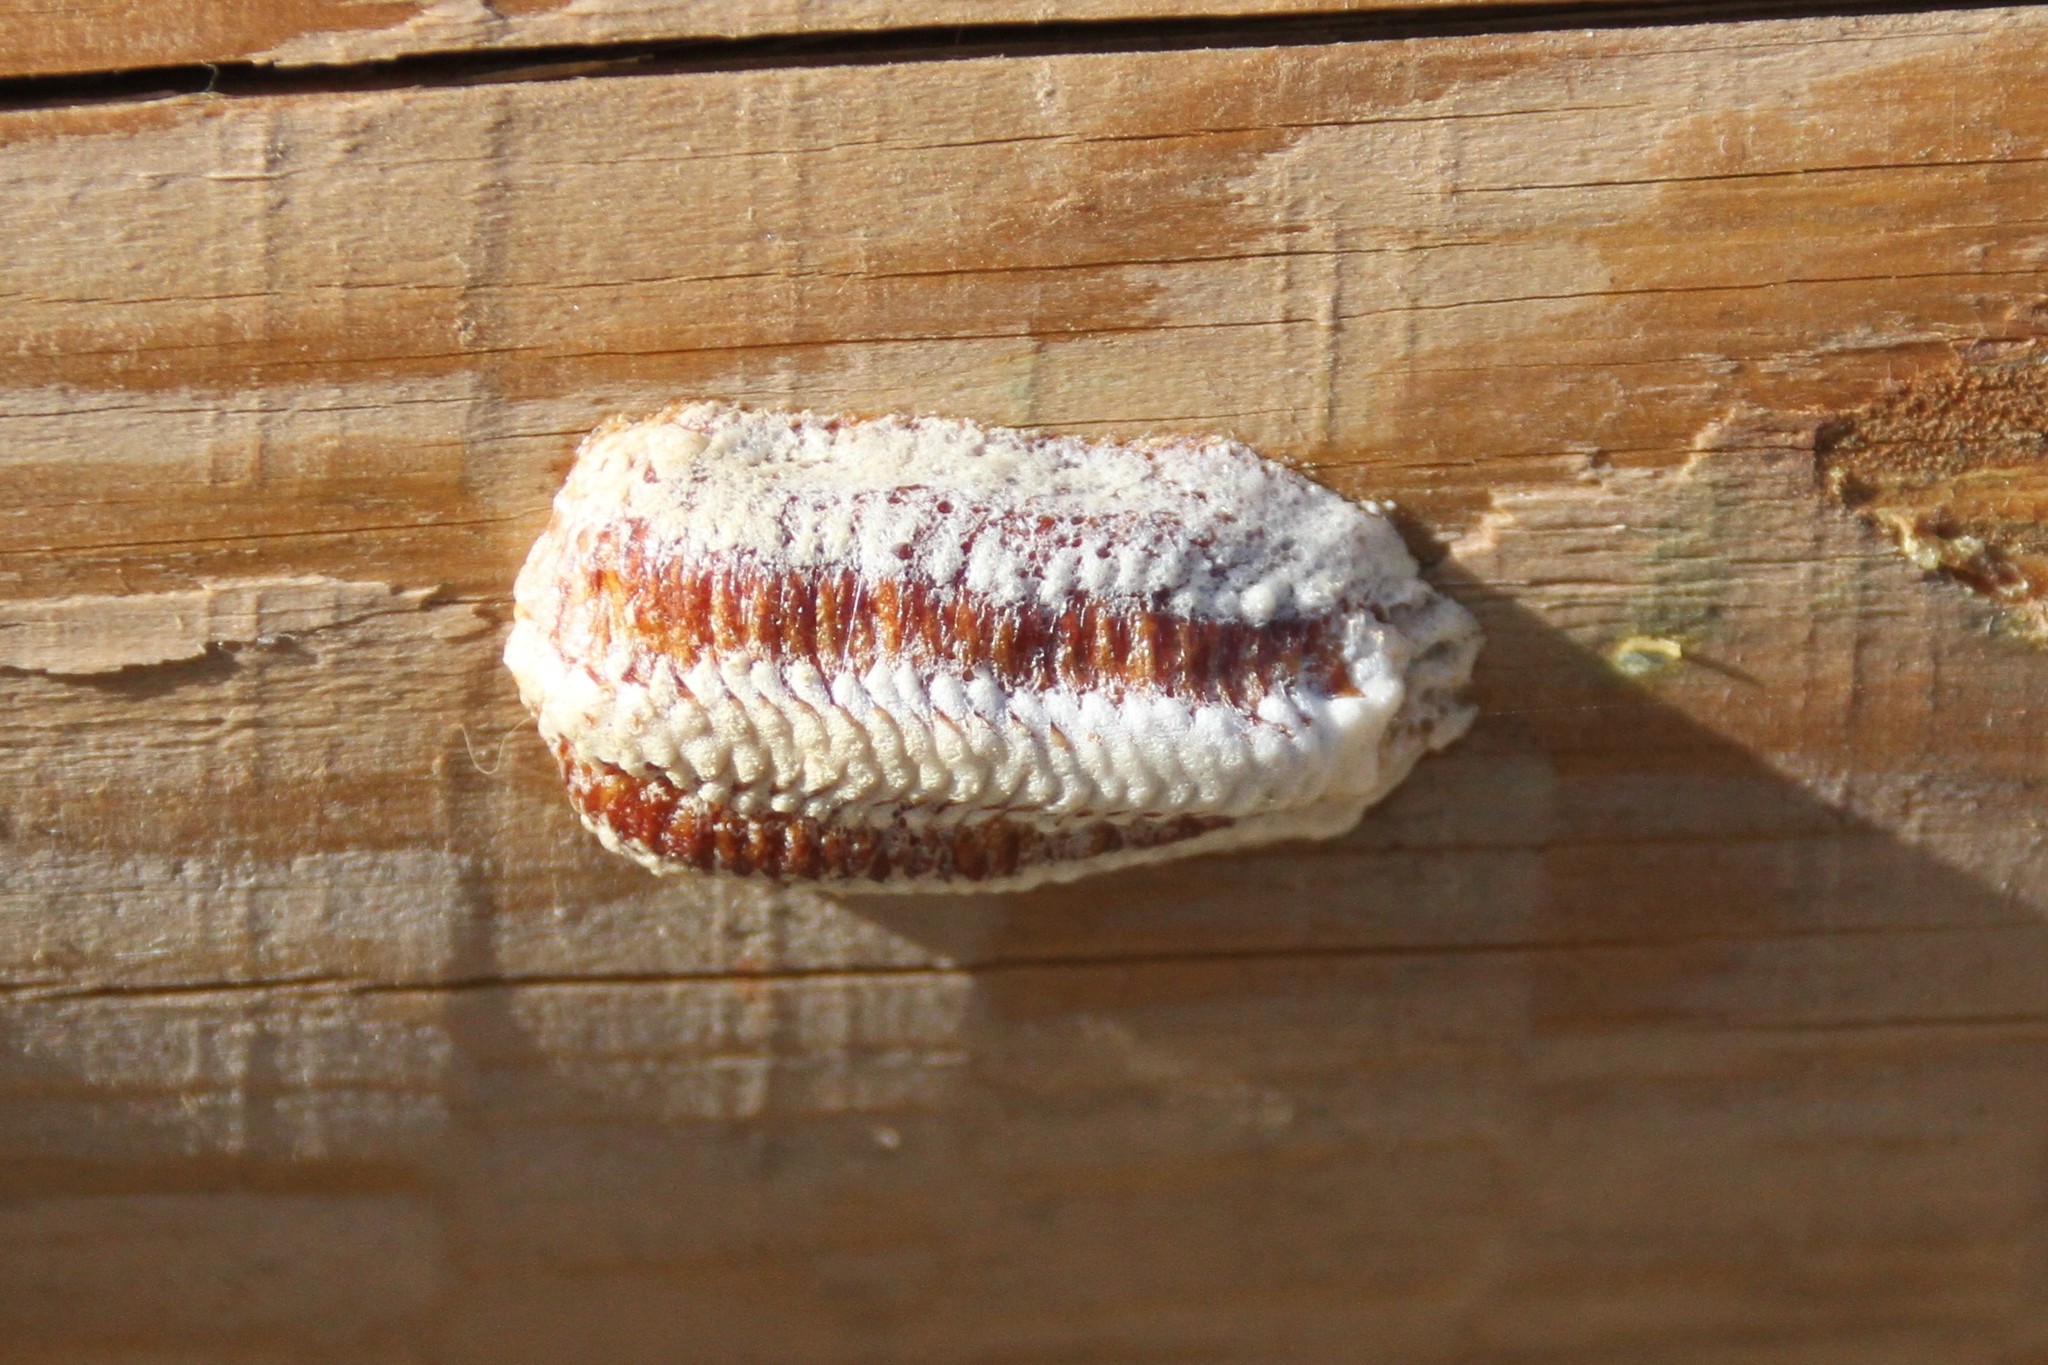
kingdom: Animalia
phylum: Arthropoda
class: Insecta
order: Mantodea
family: Mantidae
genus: Stagmomantis
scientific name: Stagmomantis limbata
